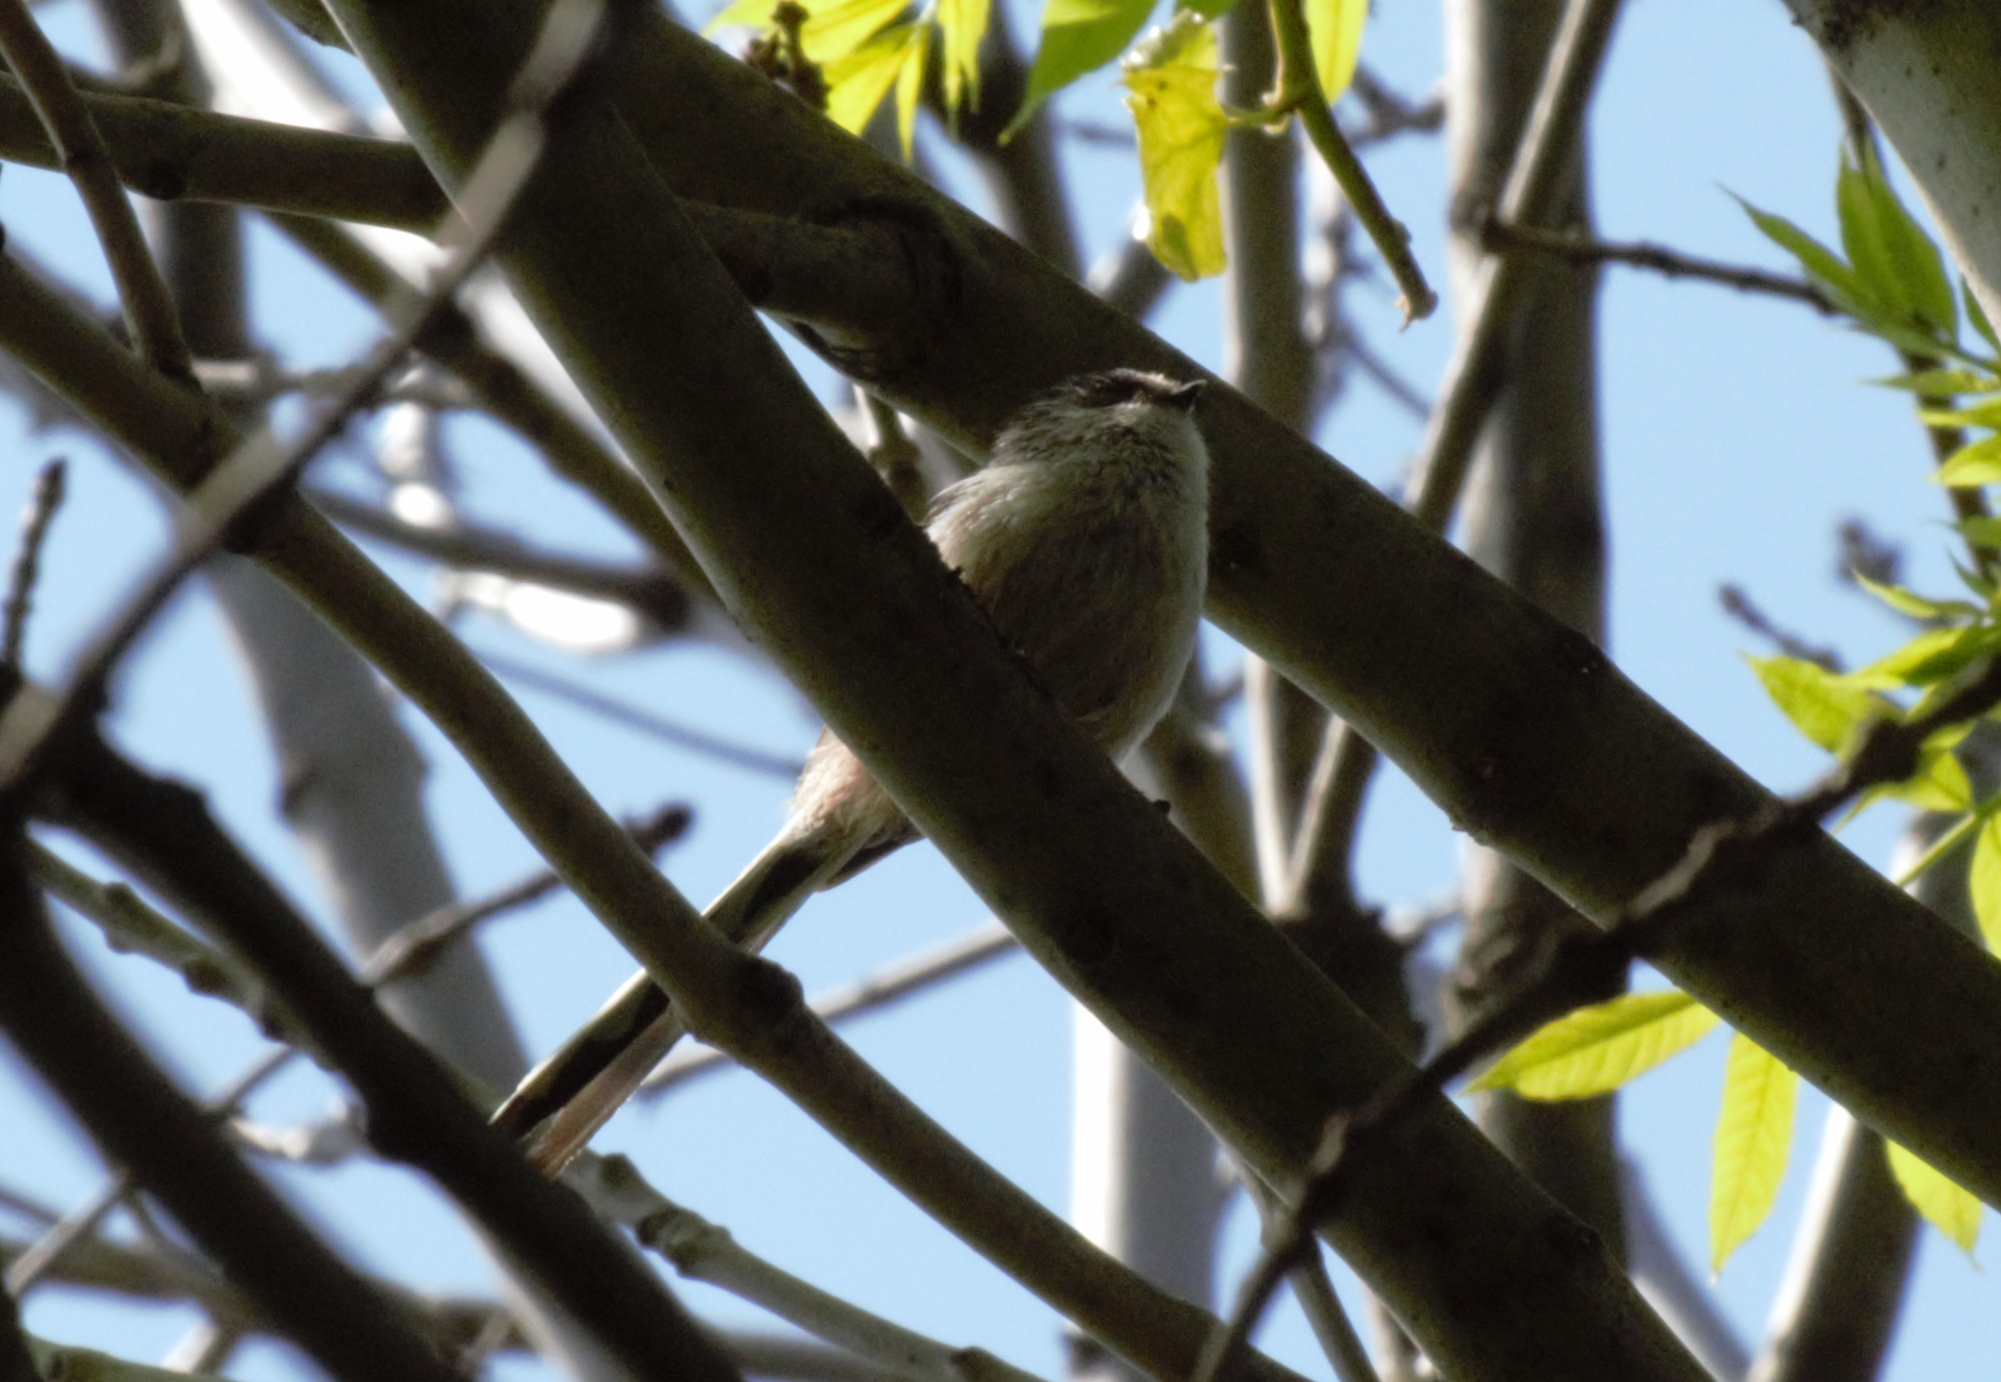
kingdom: Animalia
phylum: Chordata
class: Aves
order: Passeriformes
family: Aegithalidae
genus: Aegithalos
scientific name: Aegithalos caudatus
